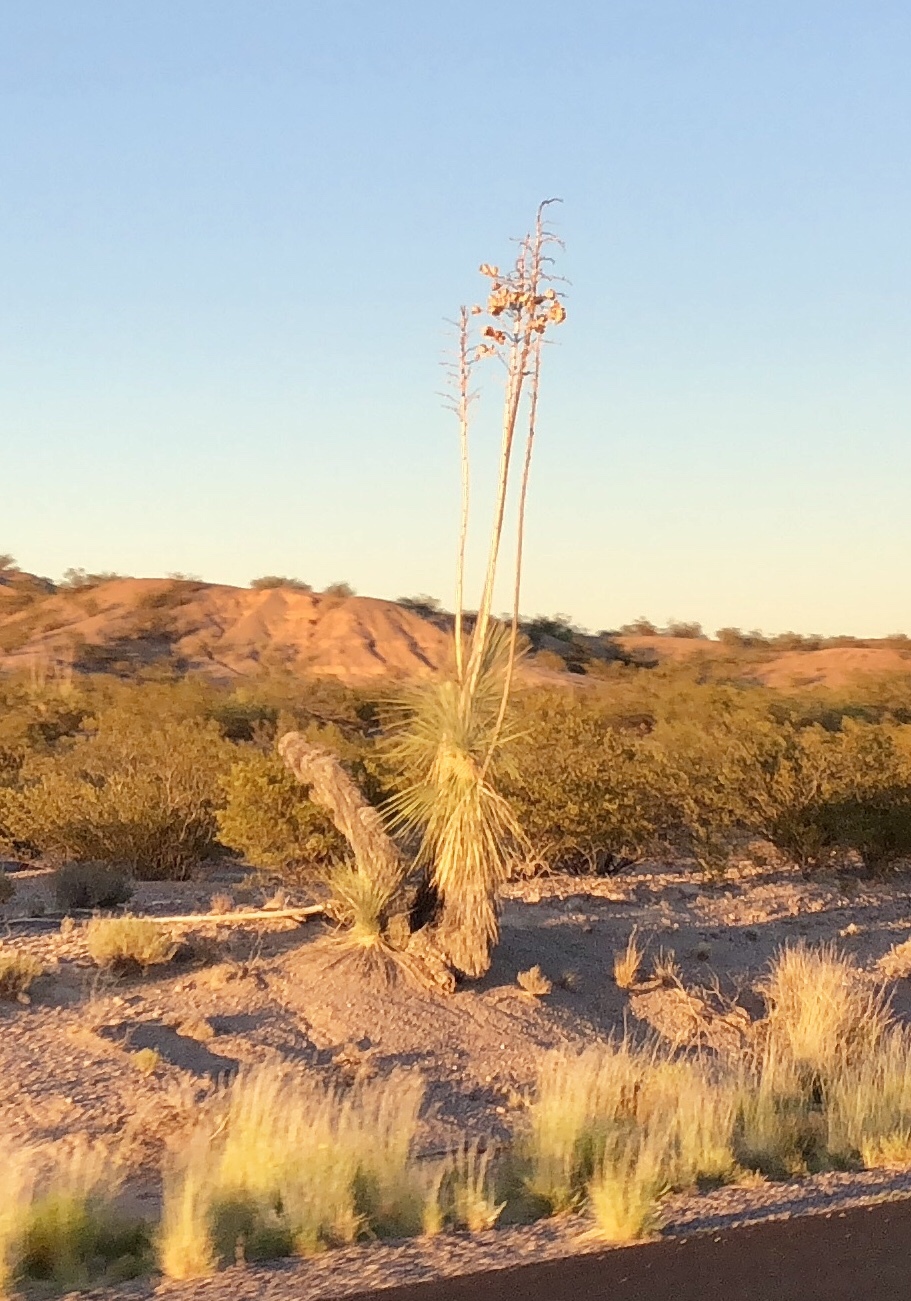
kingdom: Plantae
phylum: Tracheophyta
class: Liliopsida
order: Asparagales
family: Asparagaceae
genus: Yucca
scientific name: Yucca elata
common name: Palmella
